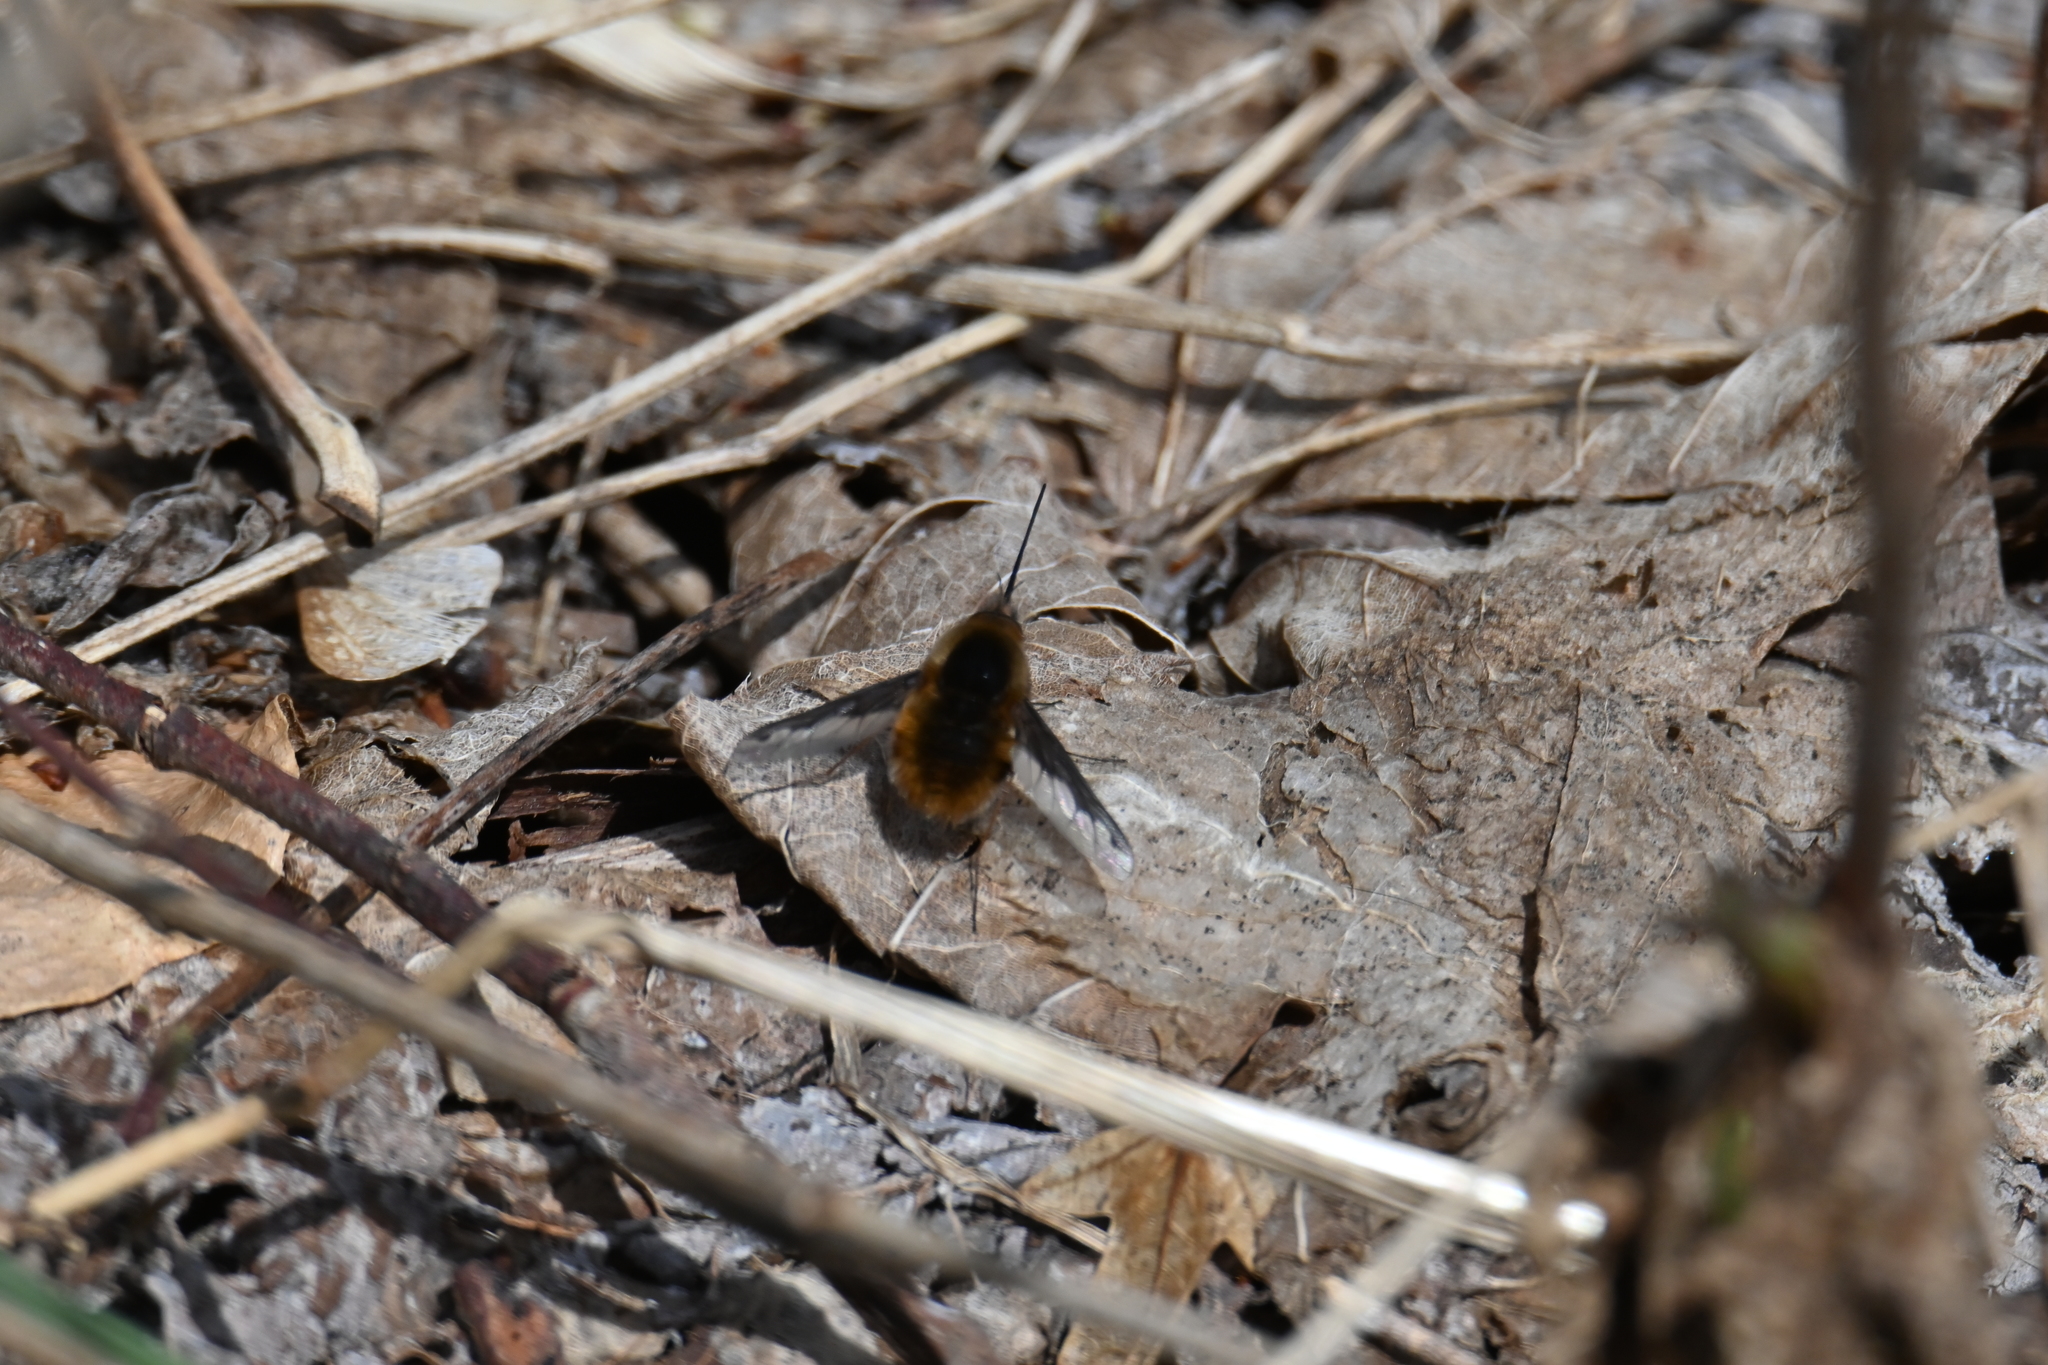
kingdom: Animalia
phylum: Arthropoda
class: Insecta
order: Diptera
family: Bombyliidae
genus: Bombylius
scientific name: Bombylius major
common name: Bee fly
